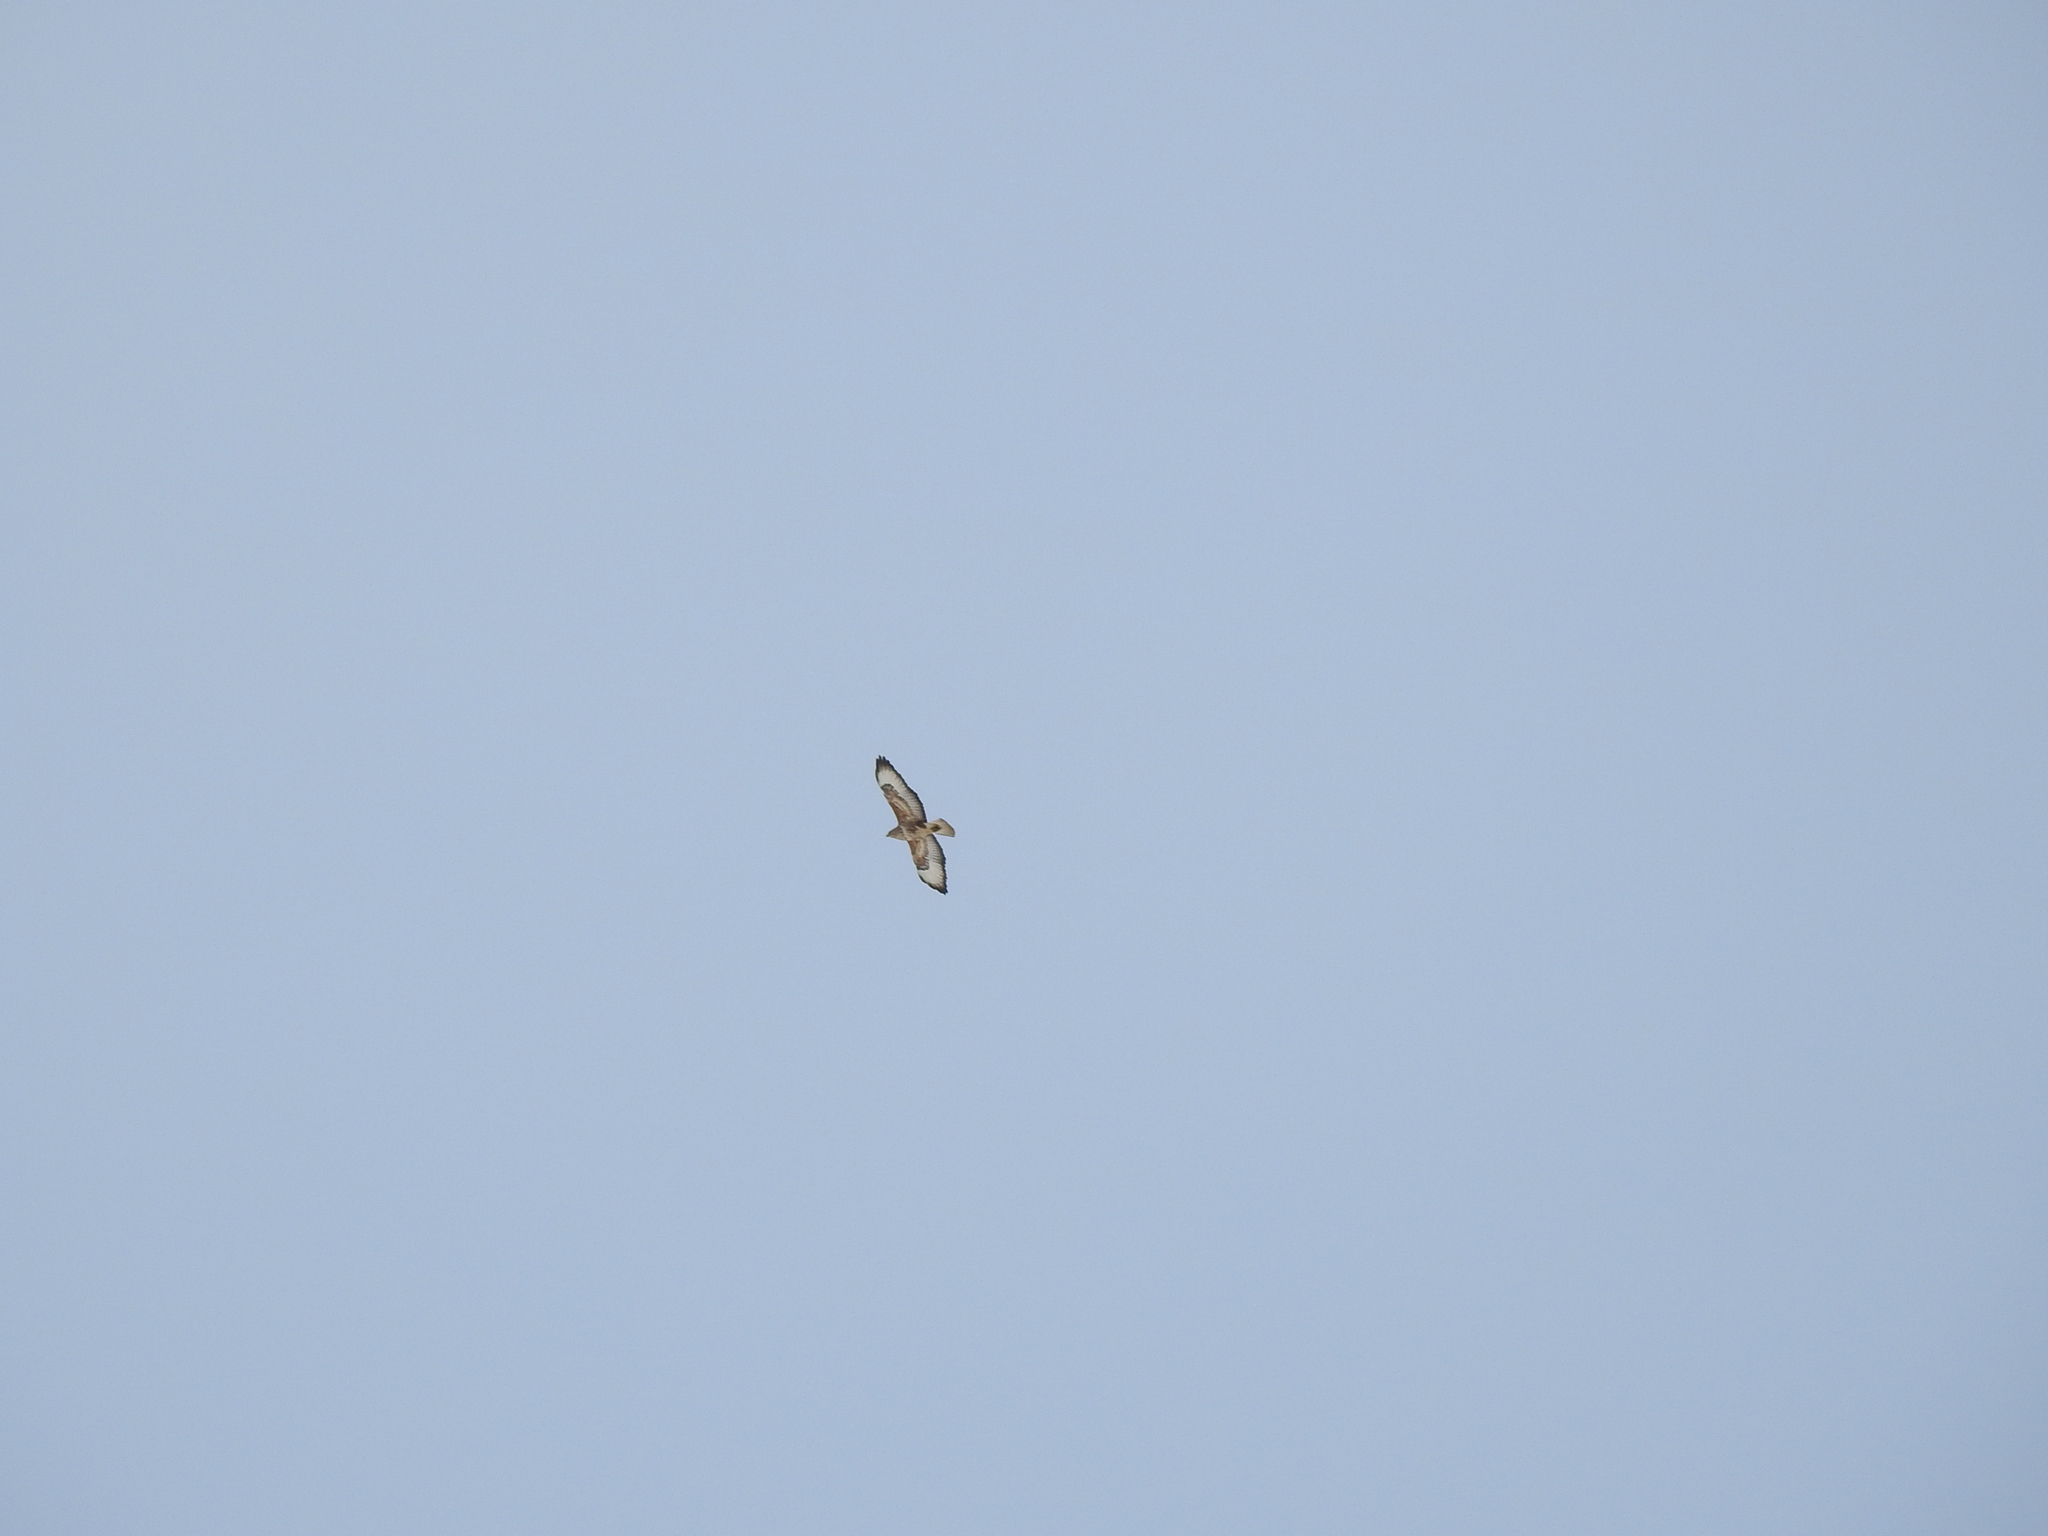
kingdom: Animalia
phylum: Chordata
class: Aves
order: Accipitriformes
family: Accipitridae
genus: Buteo
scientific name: Buteo buteo
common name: Common buzzard
